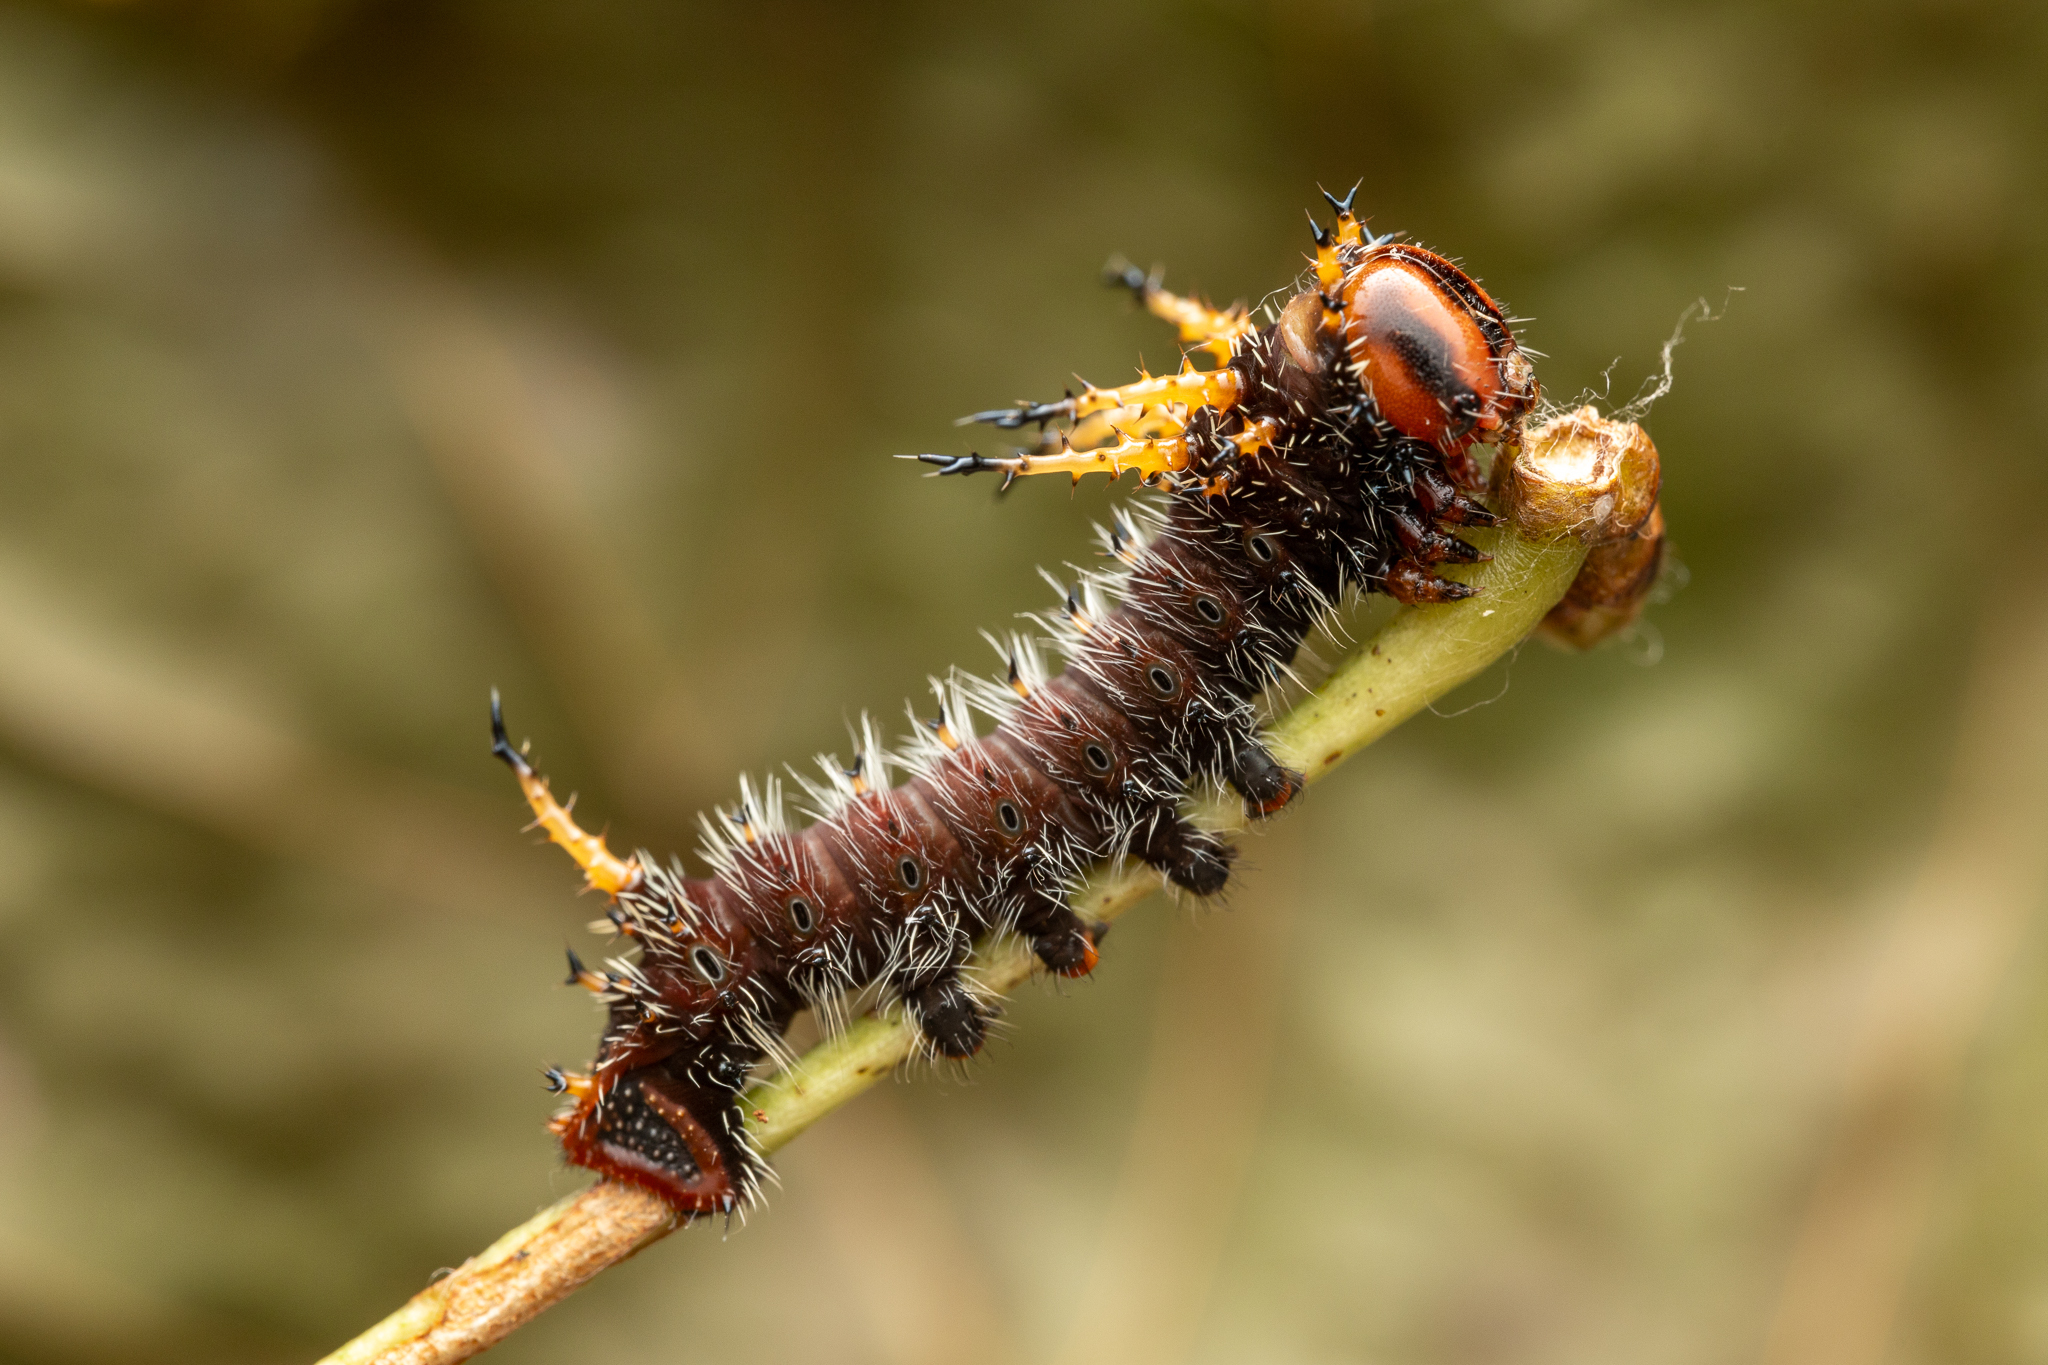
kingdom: Animalia
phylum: Arthropoda
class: Insecta
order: Lepidoptera
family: Saturniidae
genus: Eacles
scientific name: Eacles imperialis
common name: Imperial moth
